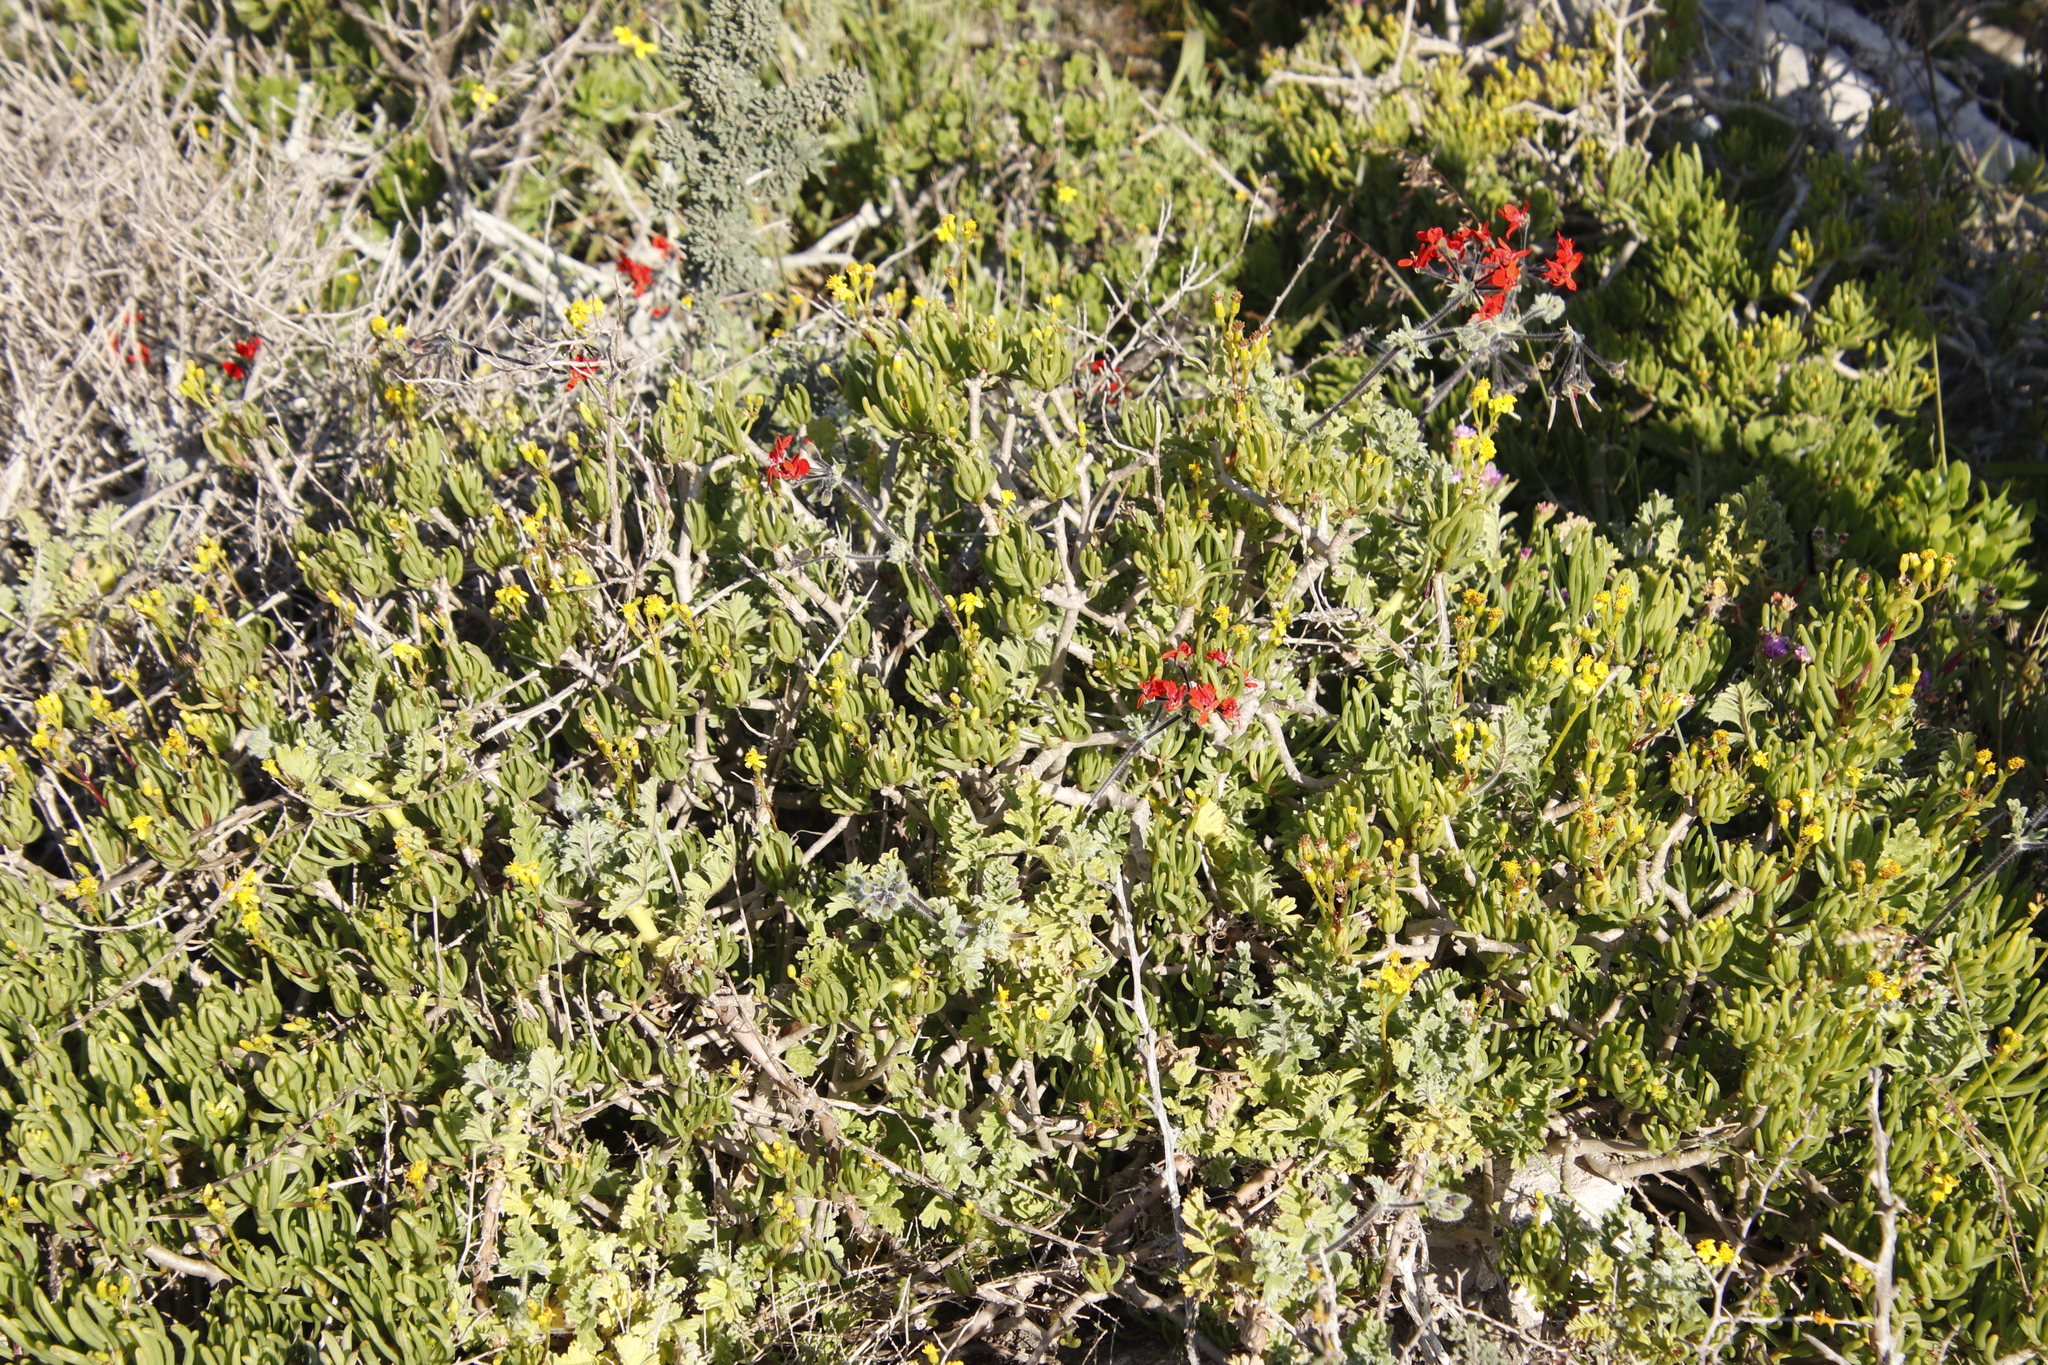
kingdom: Plantae
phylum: Tracheophyta
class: Magnoliopsida
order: Geraniales
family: Geraniaceae
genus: Pelargonium
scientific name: Pelargonium fulgidum
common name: Celandine-leaf pelargonium
